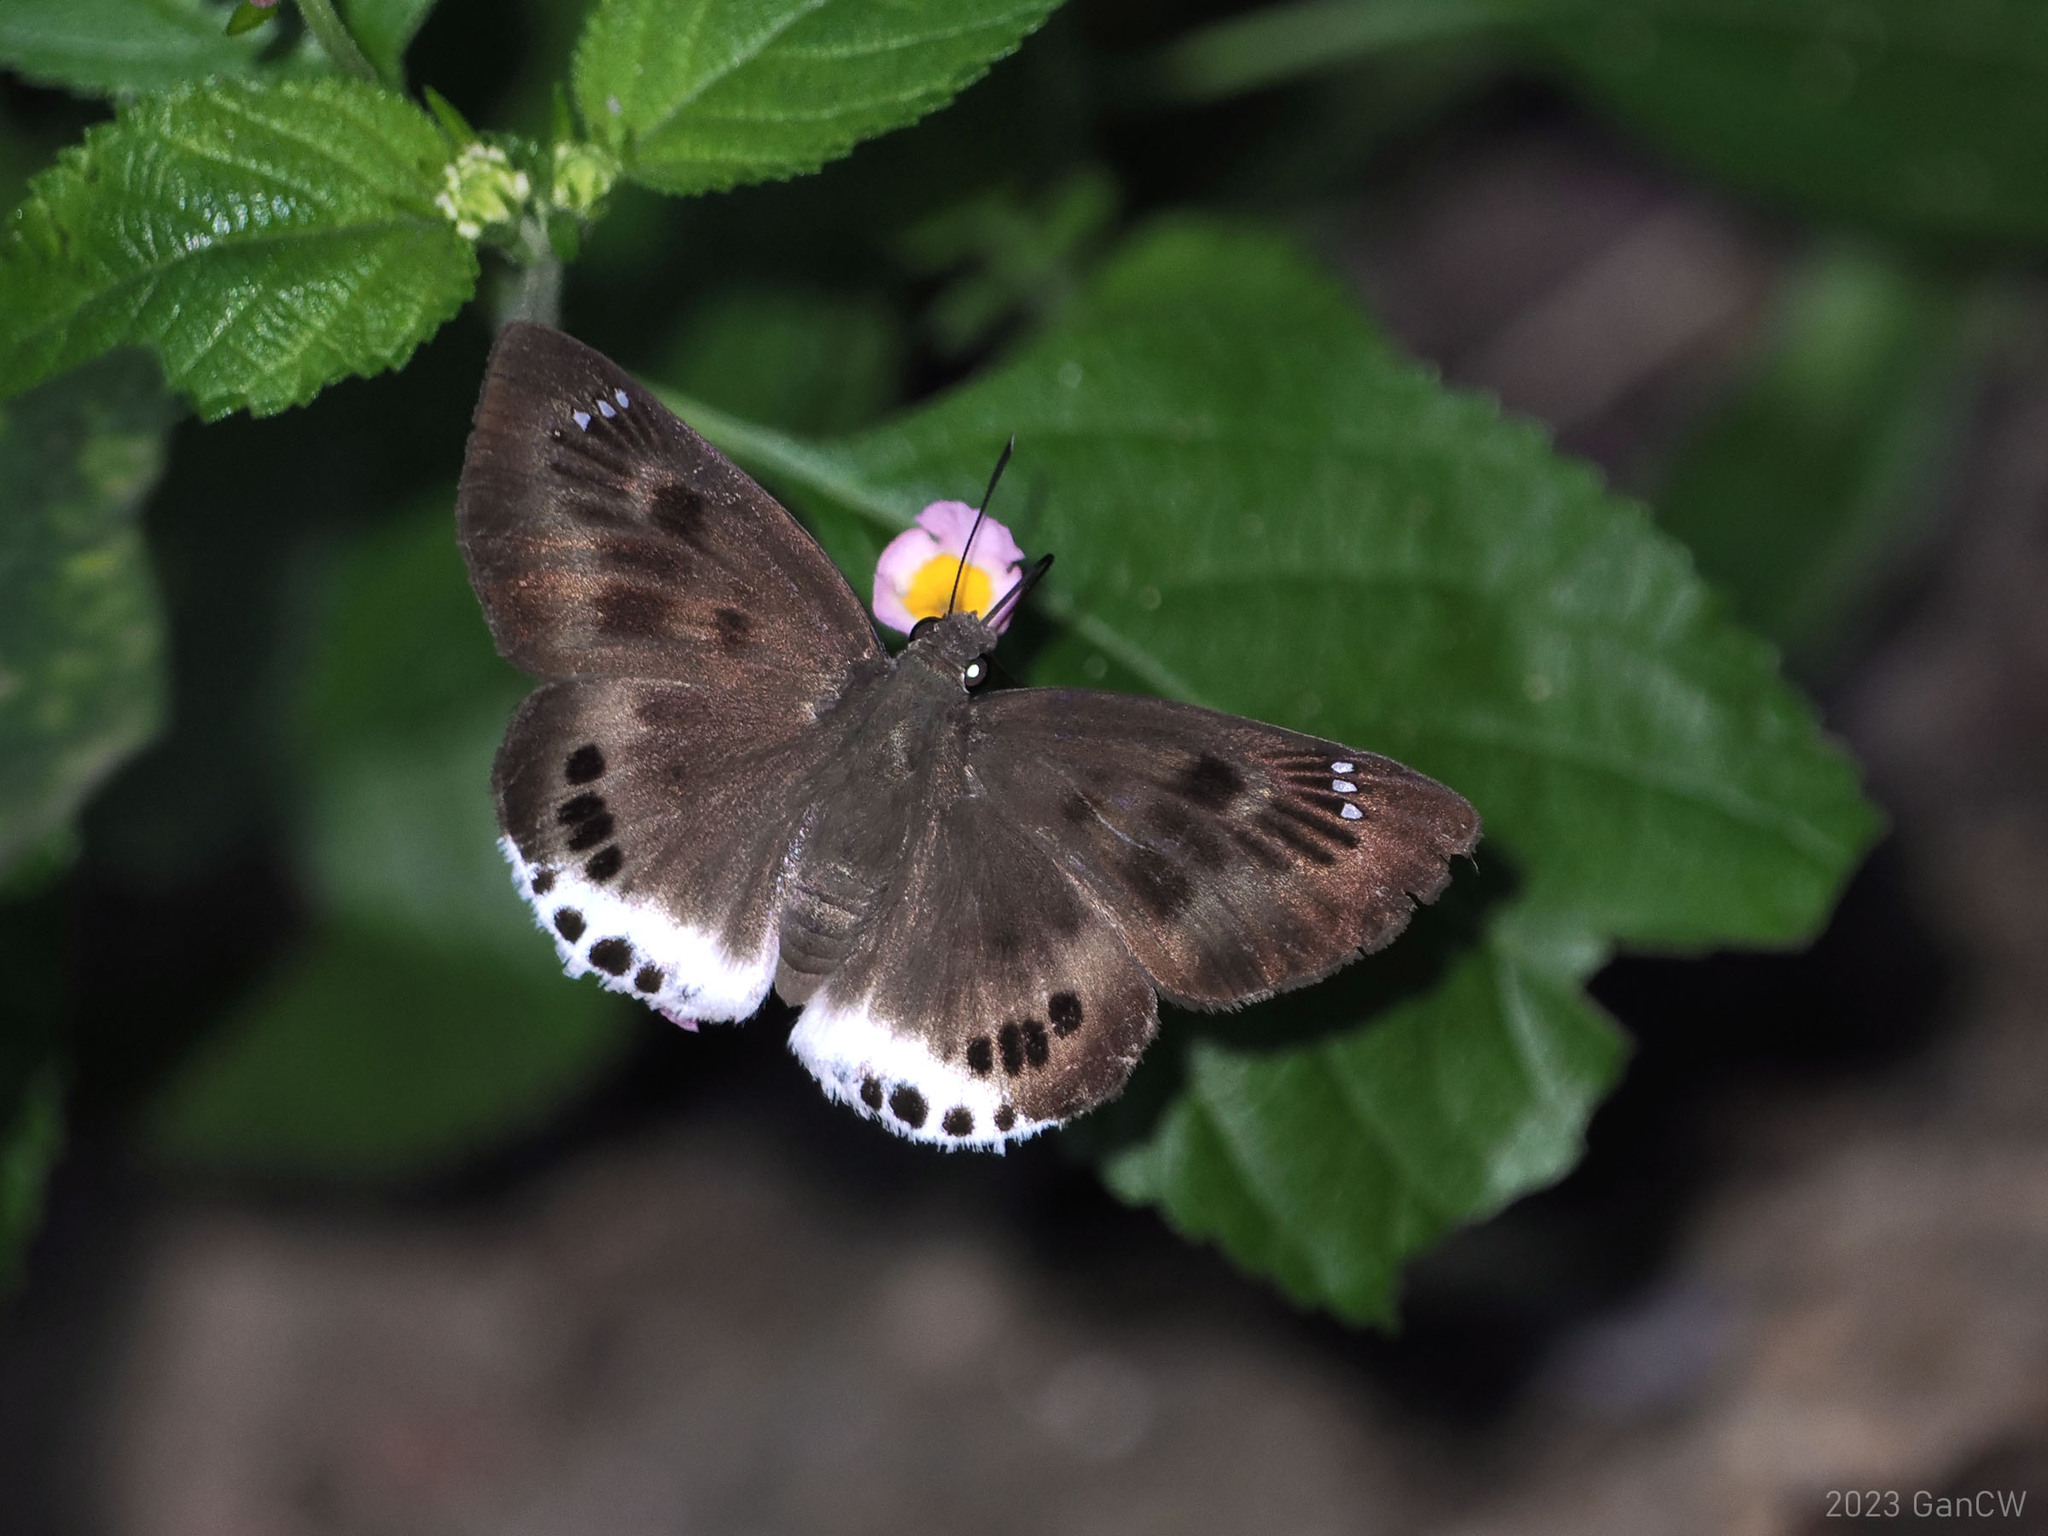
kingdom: Animalia
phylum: Arthropoda
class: Insecta
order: Lepidoptera
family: Hesperiidae
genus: Tagiades
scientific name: Tagiades gana
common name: Suffused snow flat
